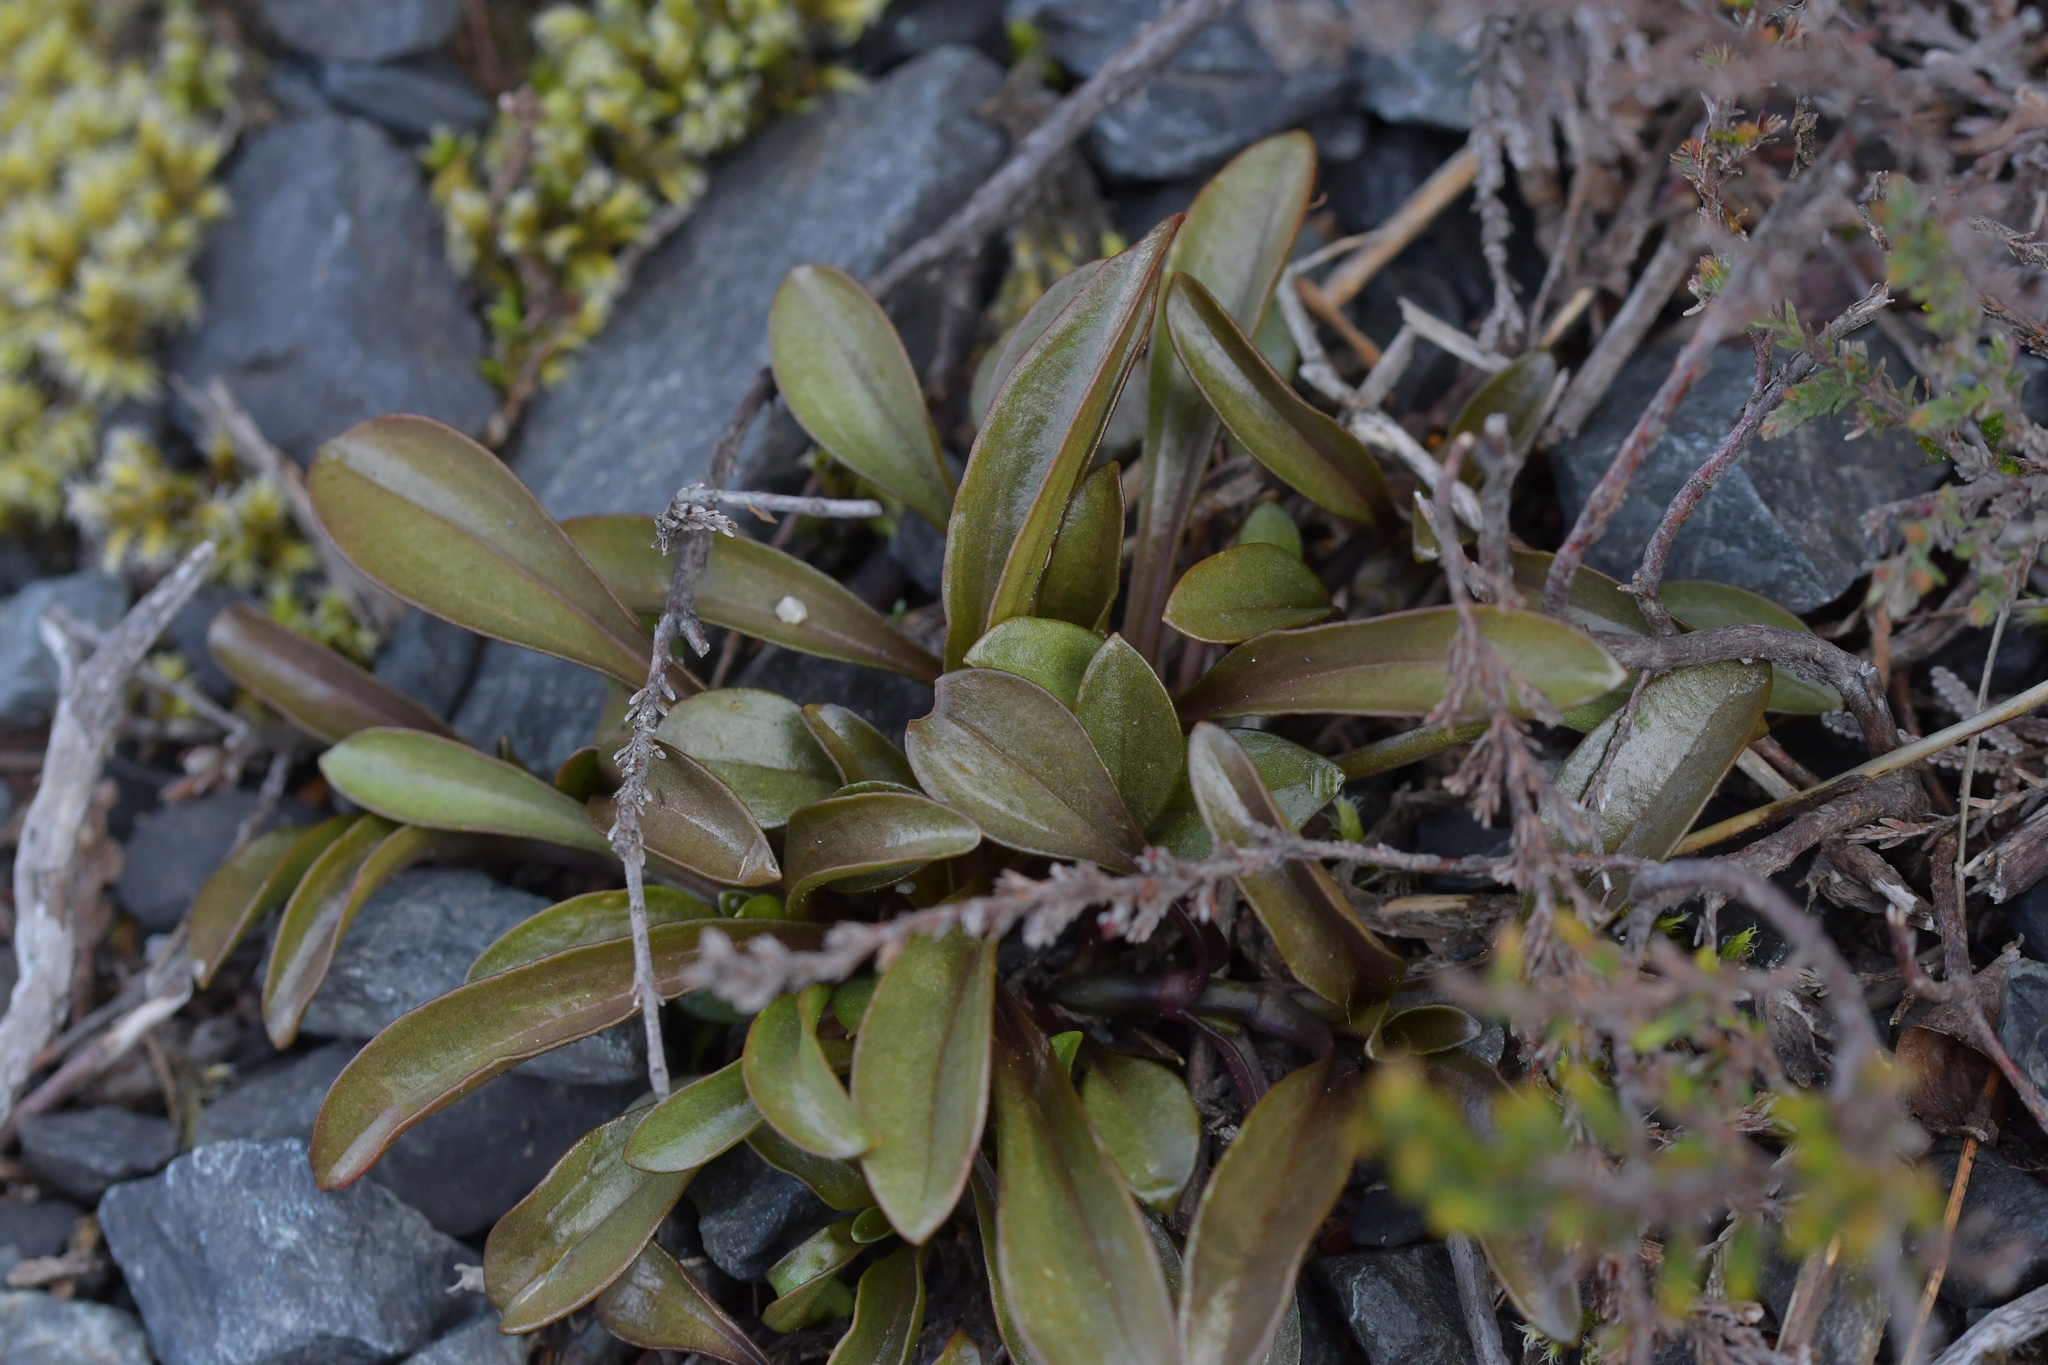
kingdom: Plantae
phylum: Tracheophyta
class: Magnoliopsida
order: Gentianales
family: Gentianaceae
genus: Gentianella
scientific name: Gentianella bellidifolia
